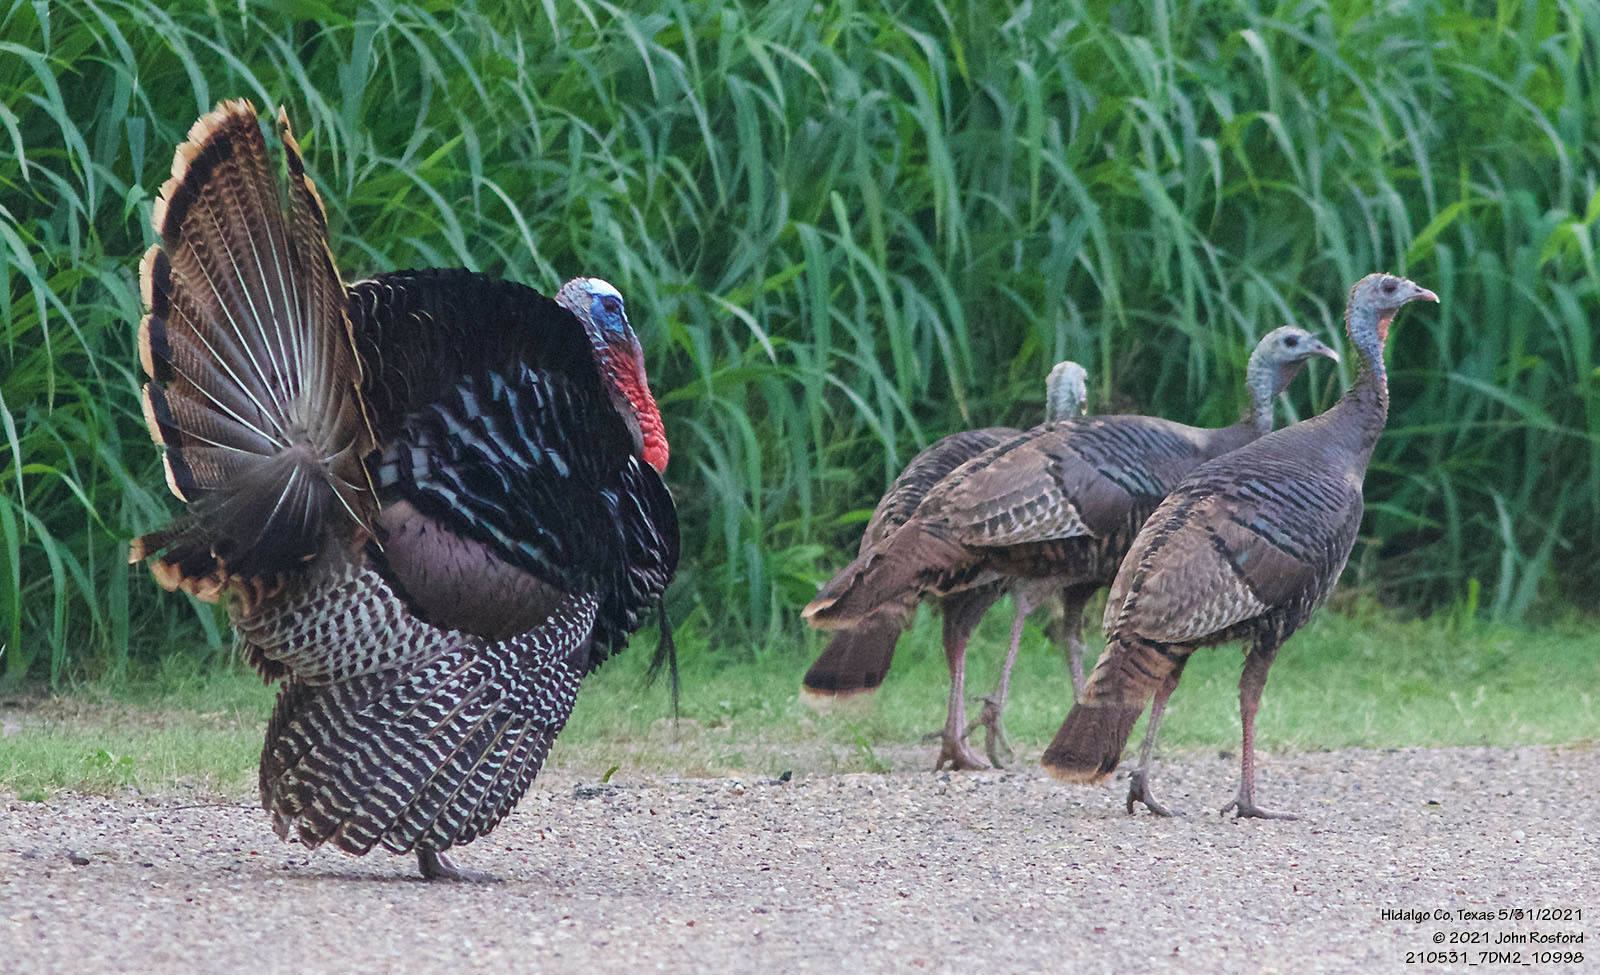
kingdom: Animalia
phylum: Chordata
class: Aves
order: Galliformes
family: Phasianidae
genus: Meleagris
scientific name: Meleagris gallopavo
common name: Wild turkey
